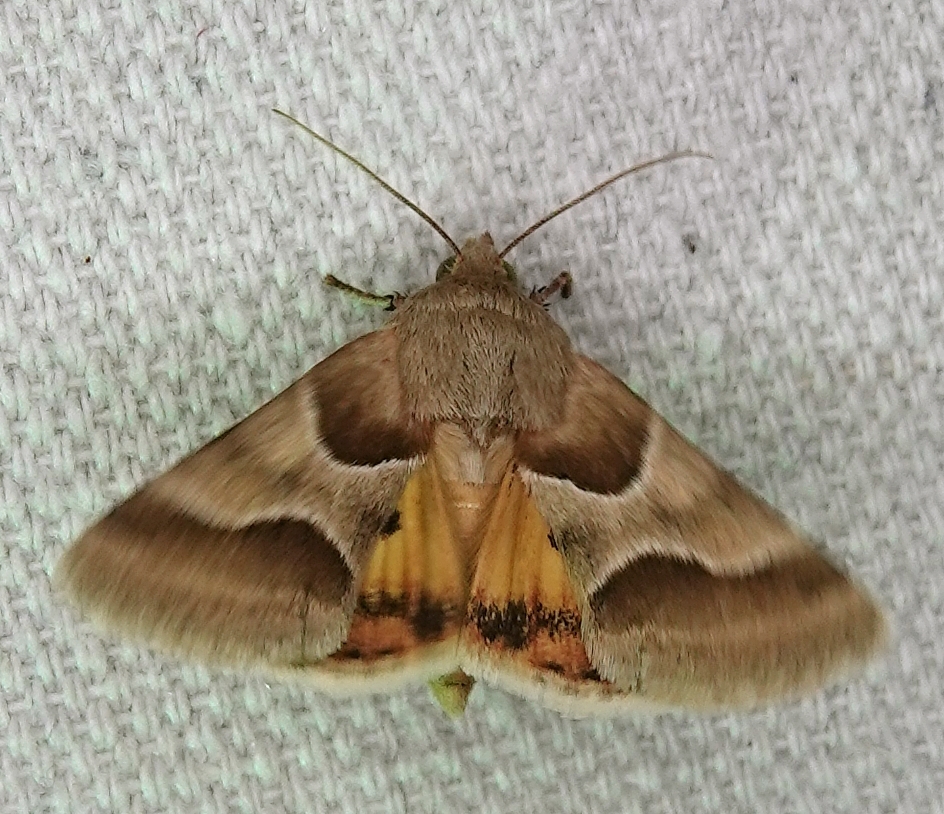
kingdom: Animalia
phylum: Arthropoda
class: Insecta
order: Lepidoptera
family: Noctuidae
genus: Schinia
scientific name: Schinia jaguarina
